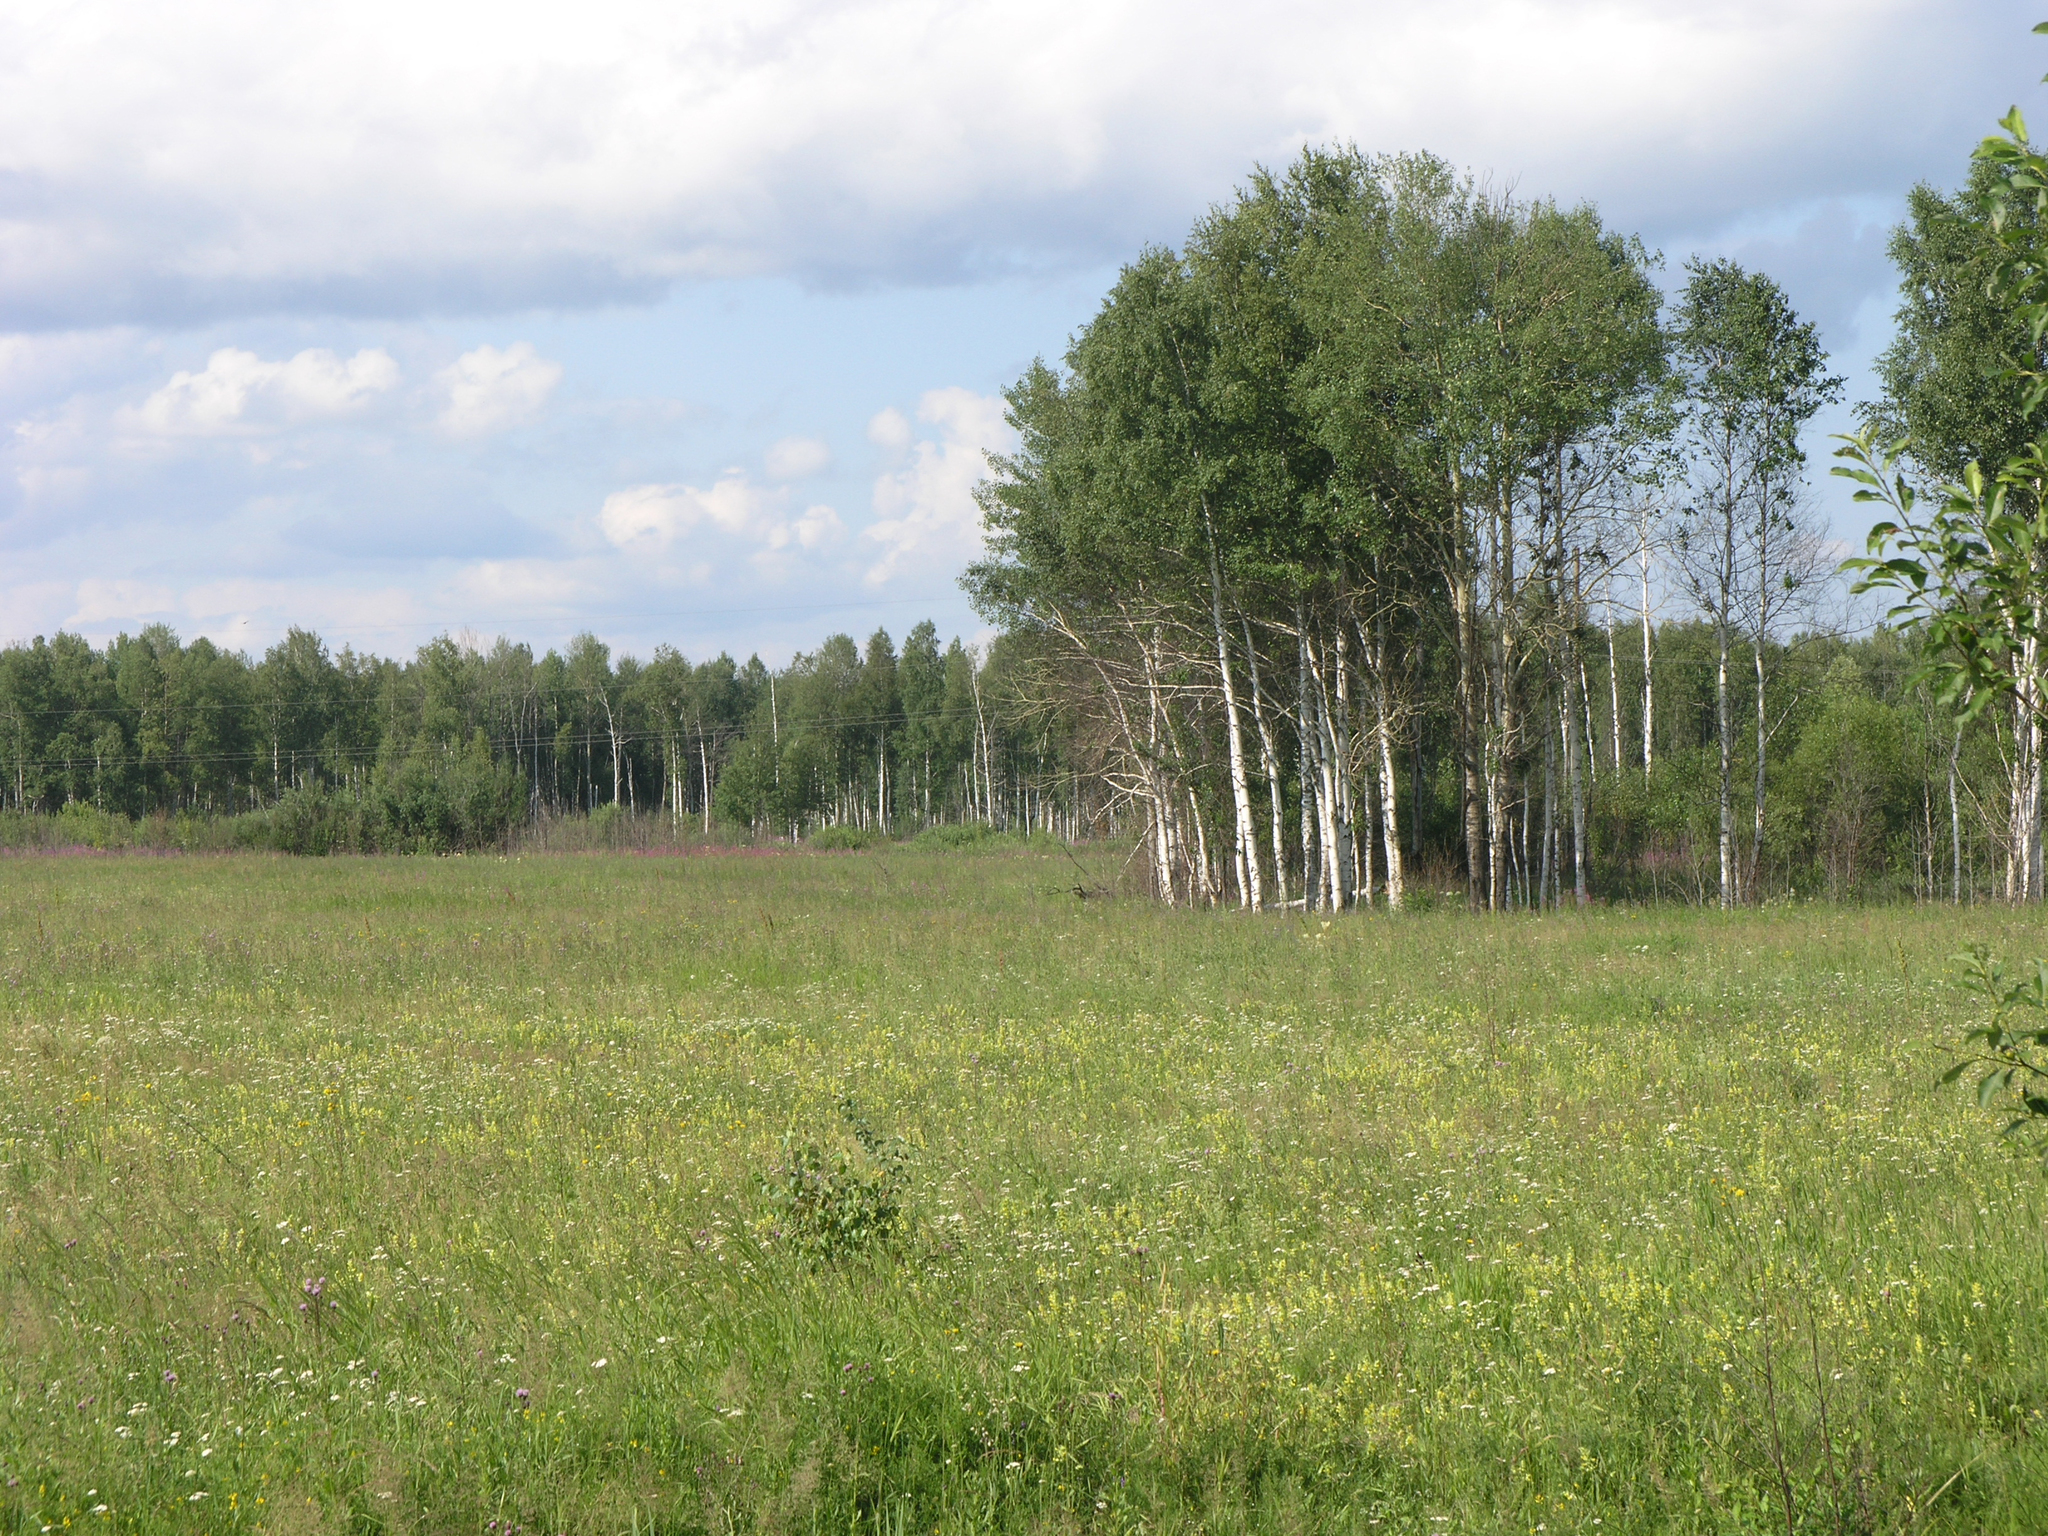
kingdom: Plantae
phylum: Tracheophyta
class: Magnoliopsida
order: Fagales
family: Betulaceae
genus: Betula
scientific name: Betula pendula
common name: Silver birch
